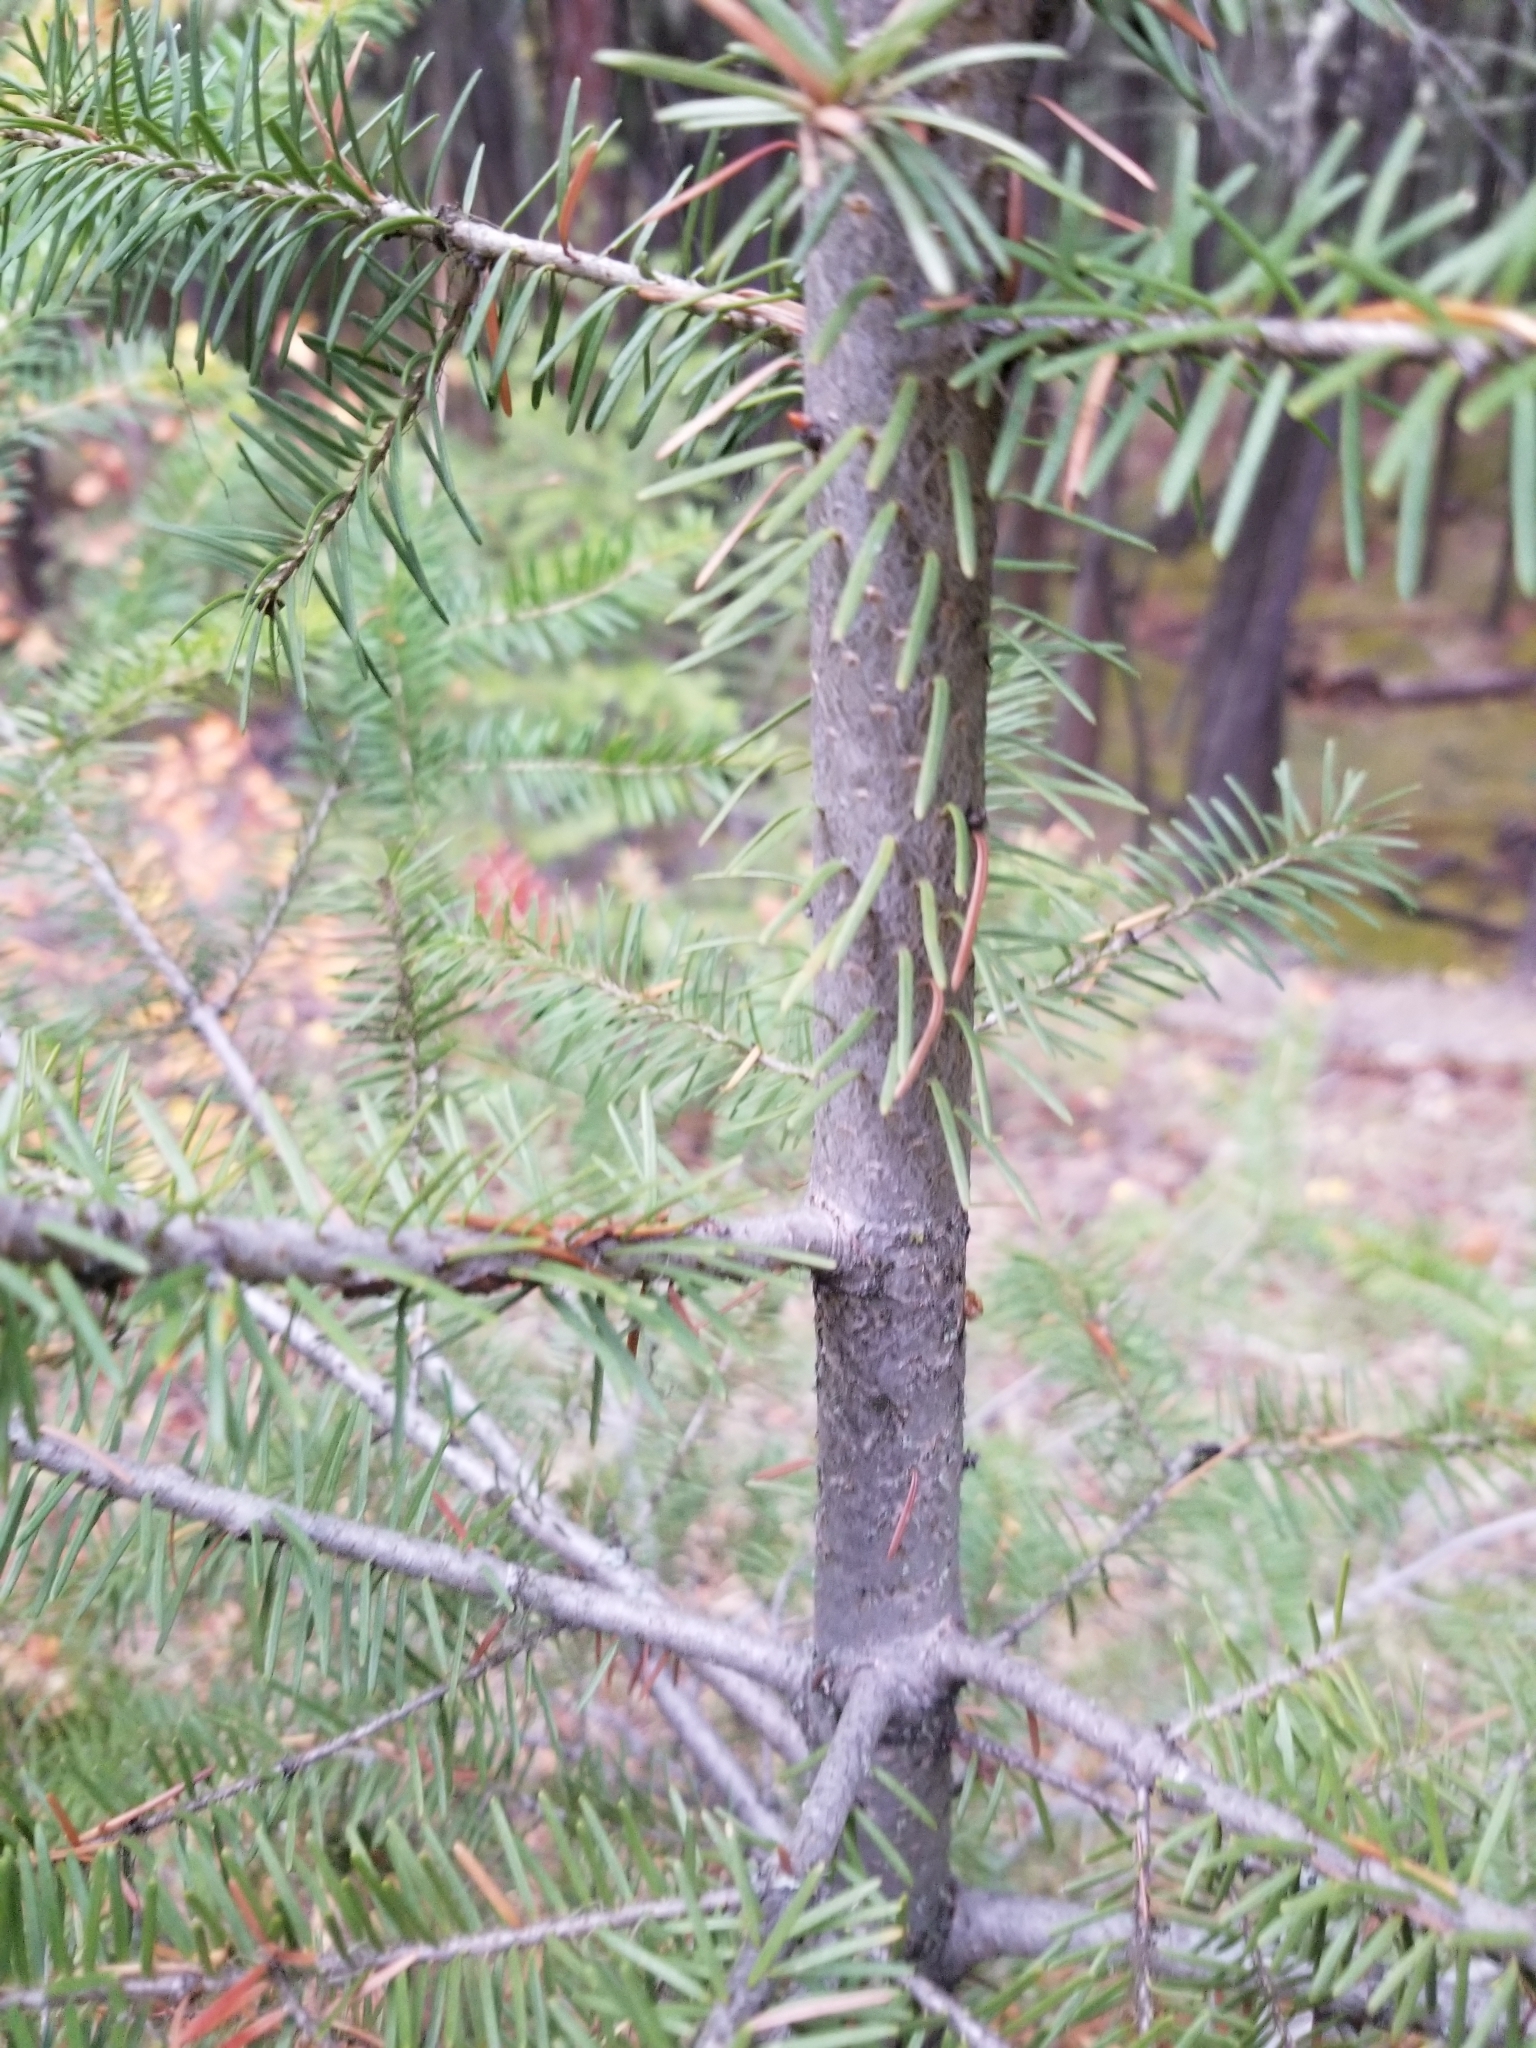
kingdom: Plantae
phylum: Tracheophyta
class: Pinopsida
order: Pinales
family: Pinaceae
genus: Pseudotsuga
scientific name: Pseudotsuga menziesii
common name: Douglas fir
